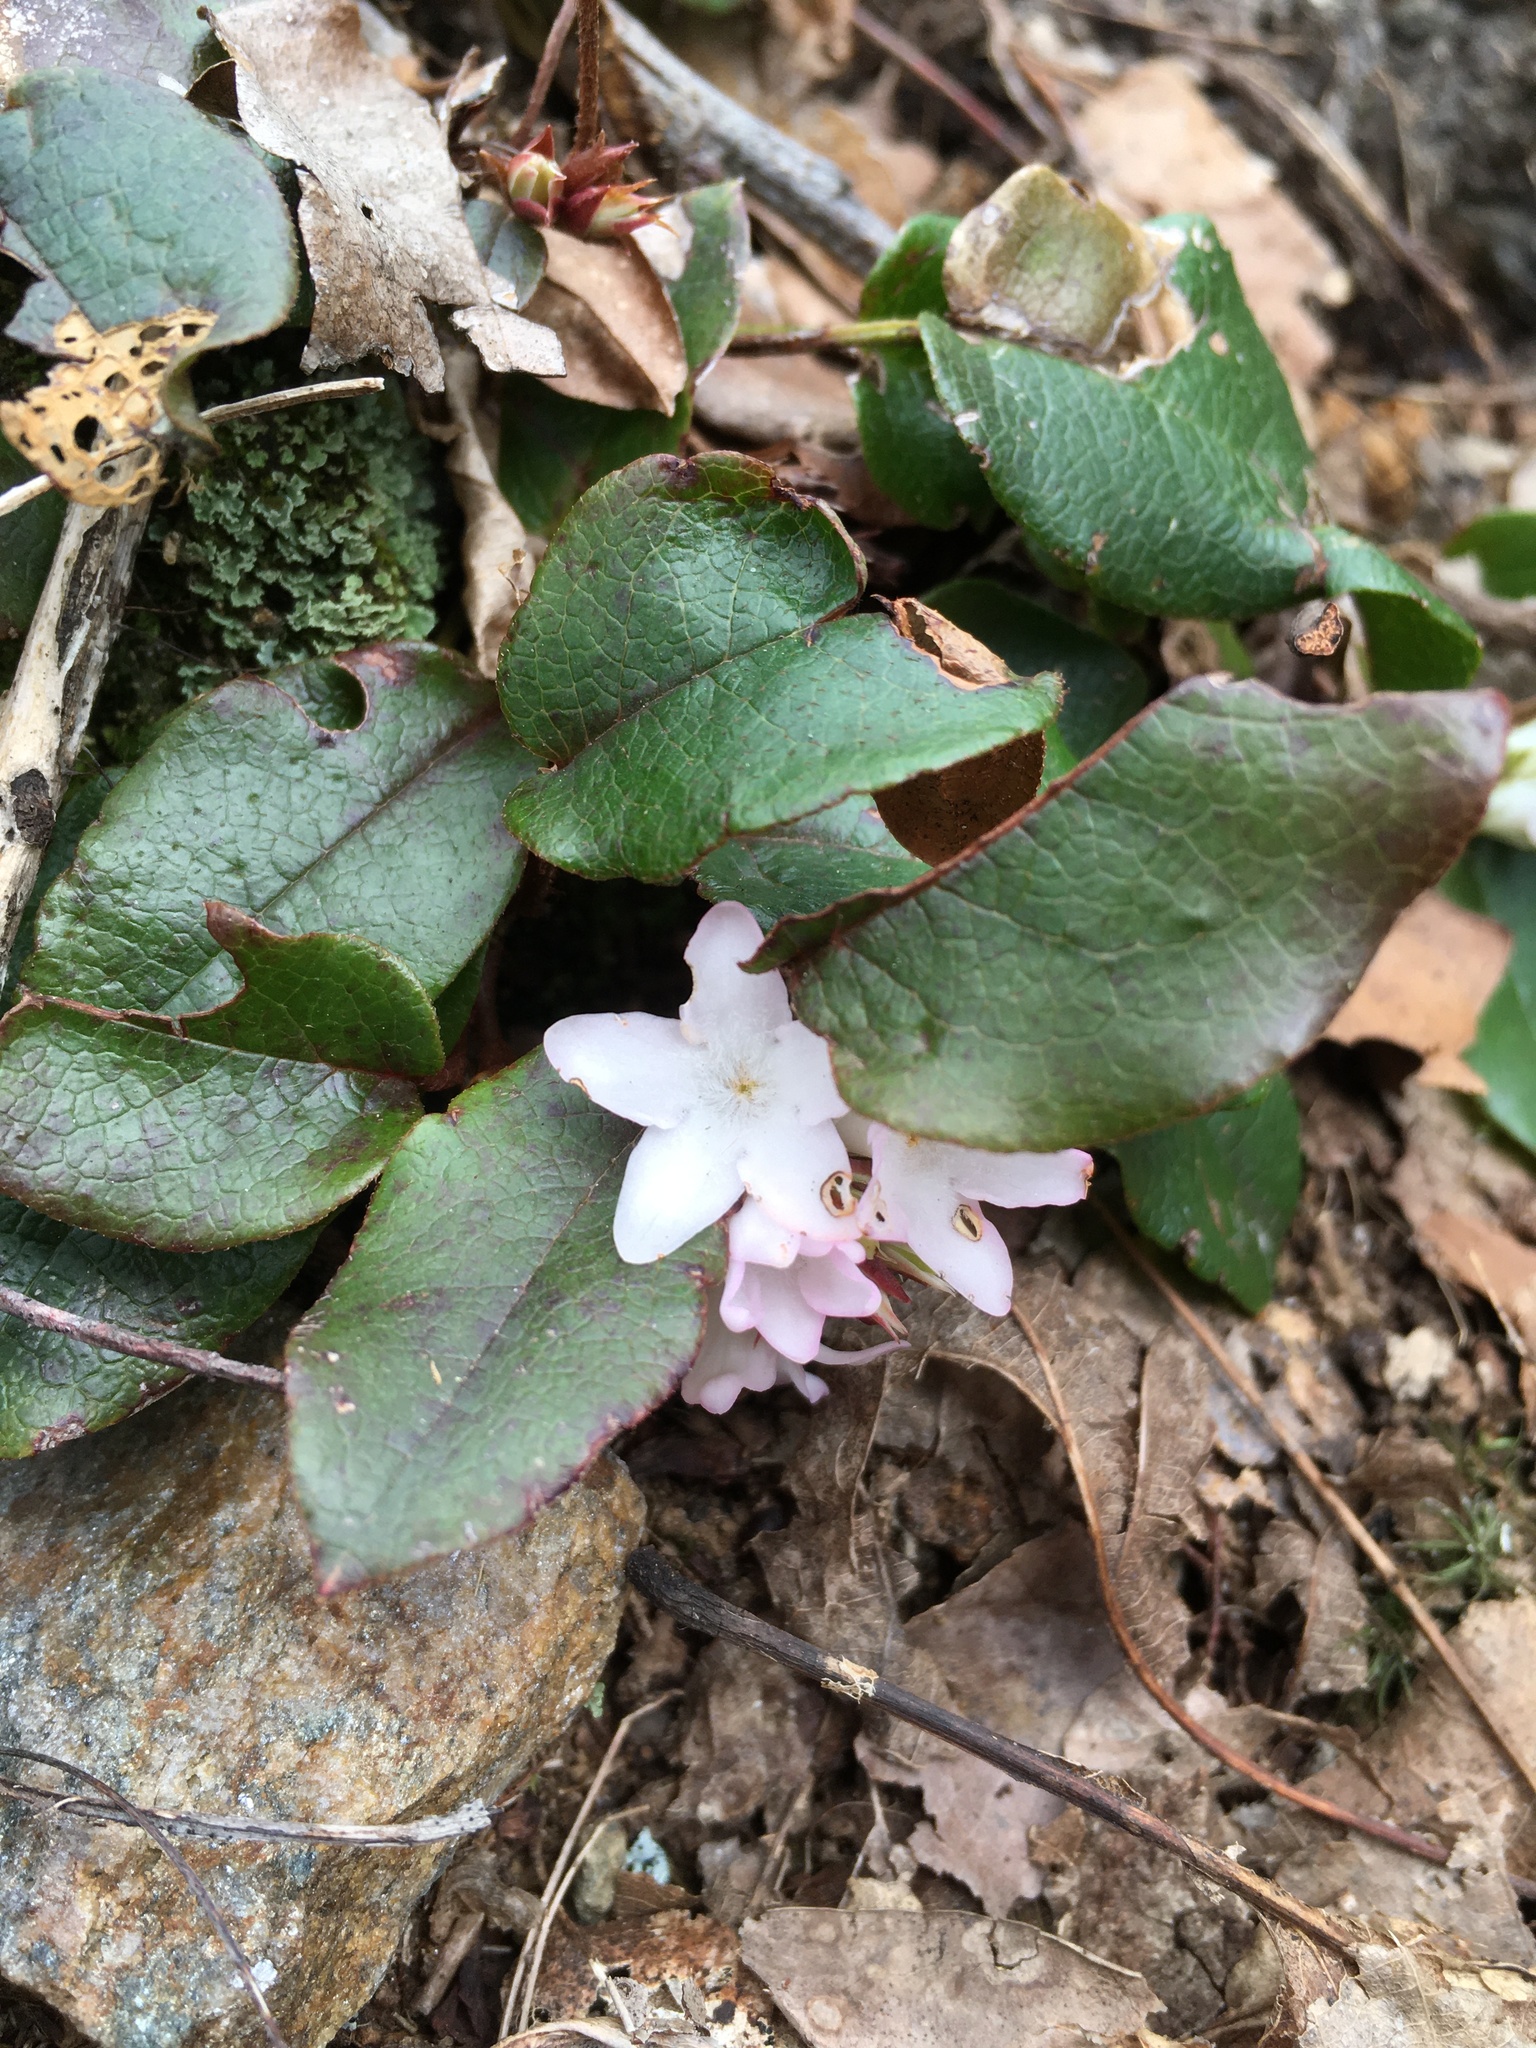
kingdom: Plantae
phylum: Tracheophyta
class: Magnoliopsida
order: Ericales
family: Ericaceae
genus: Epigaea
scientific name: Epigaea repens
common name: Gravelroot
